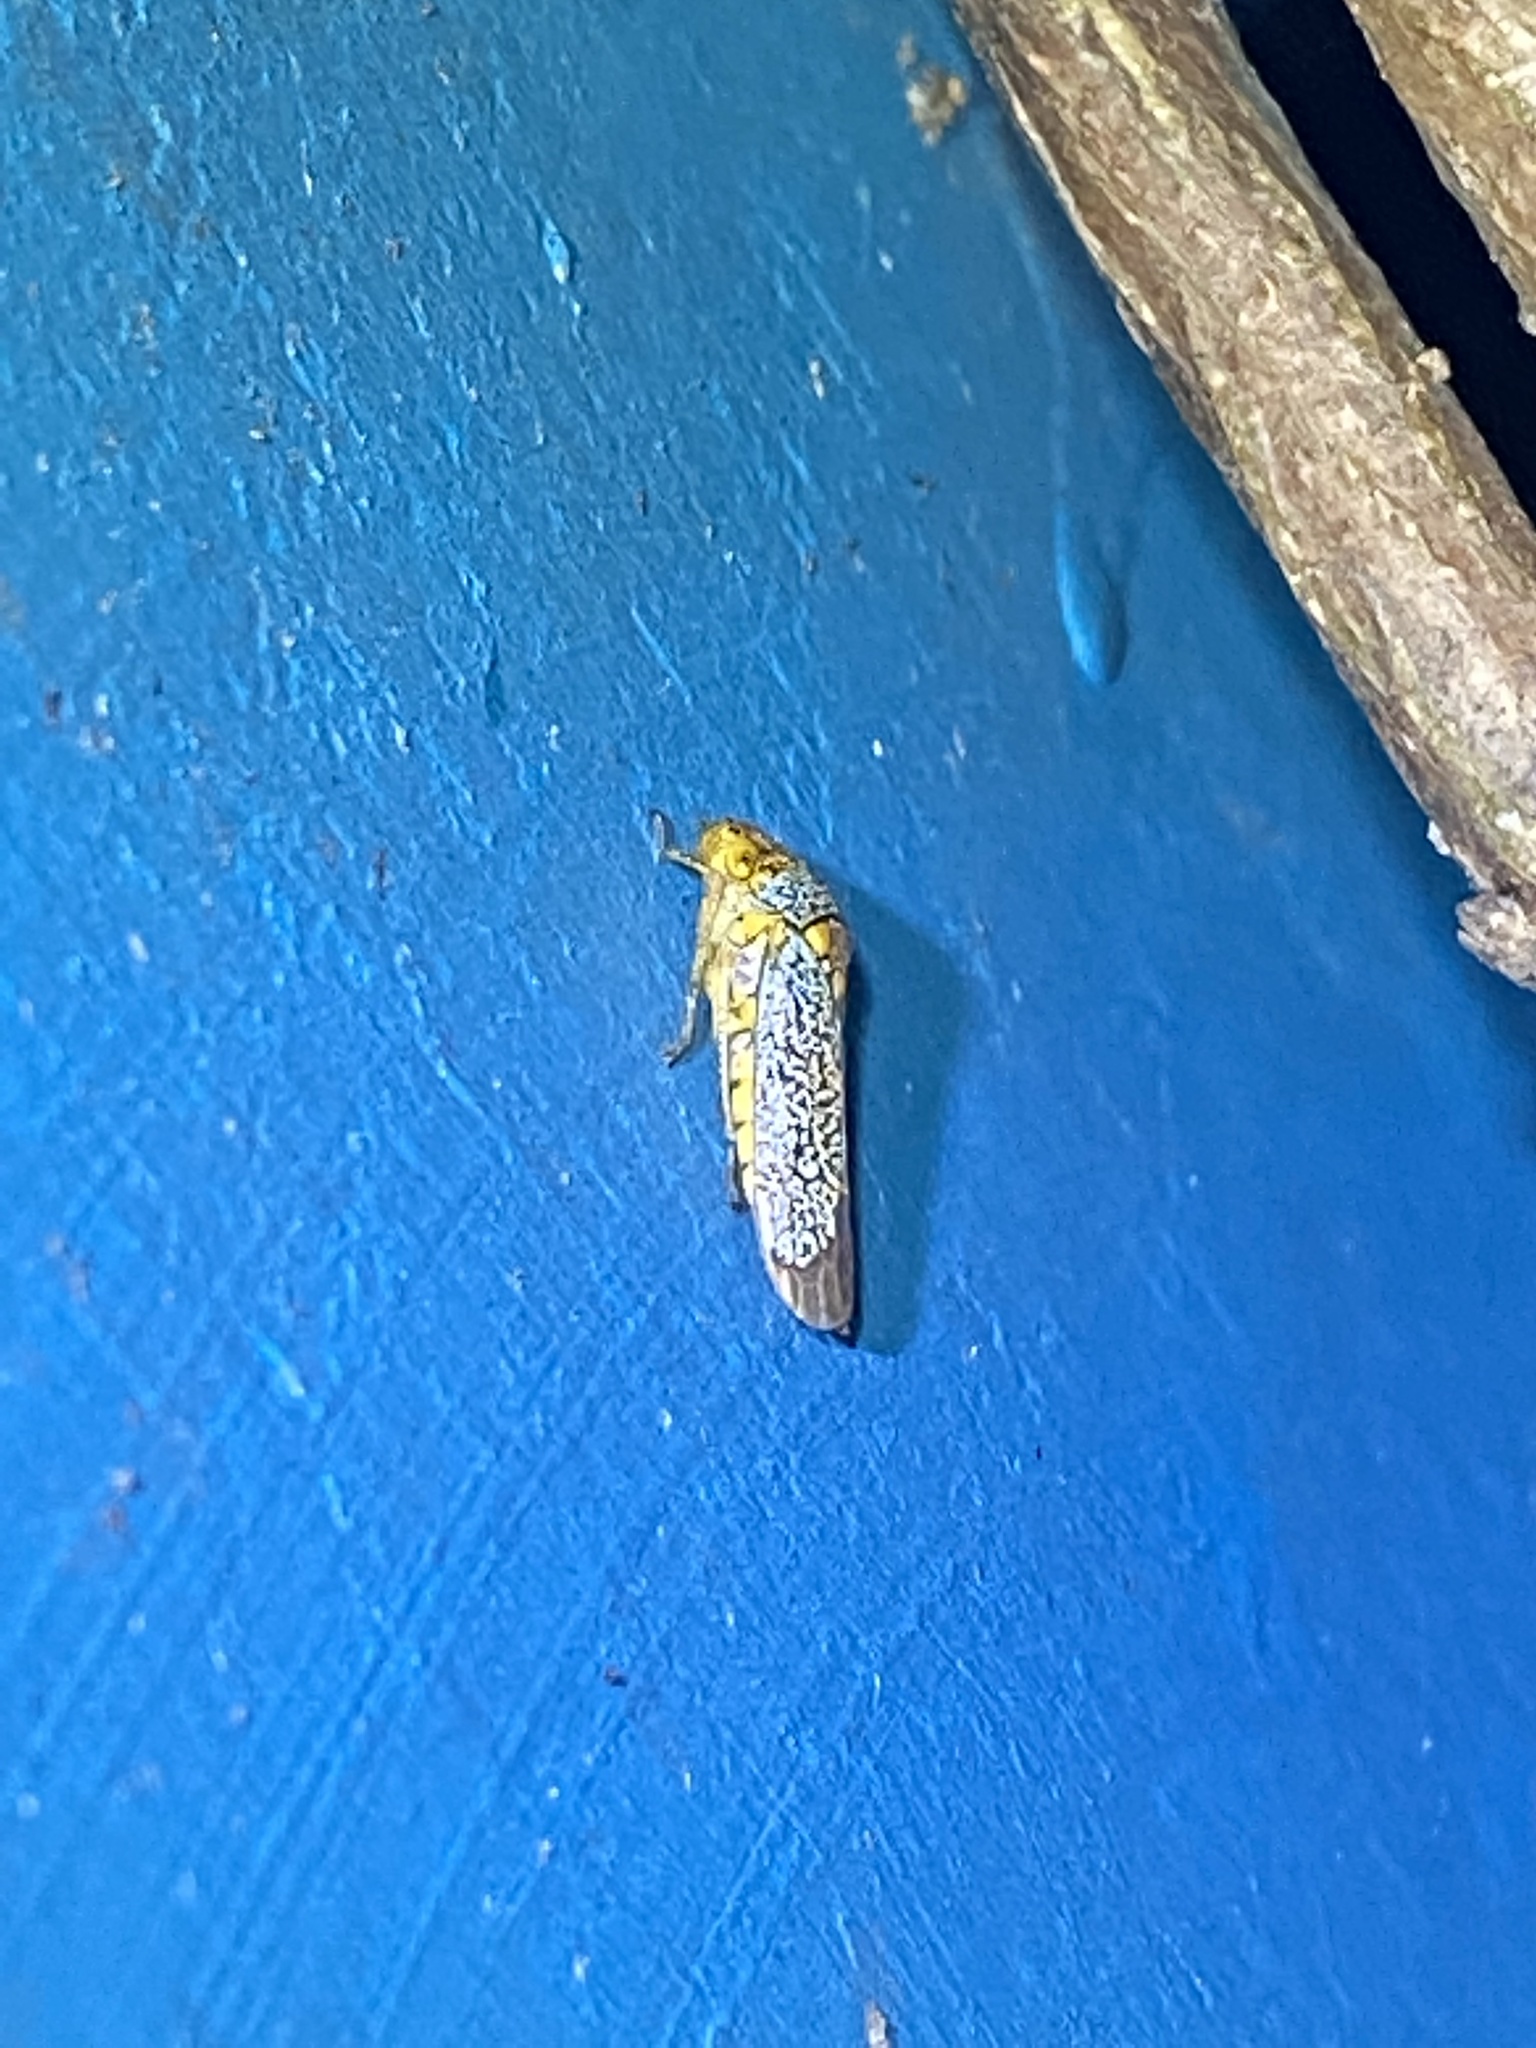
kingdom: Animalia
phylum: Arthropoda
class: Insecta
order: Hemiptera
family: Cicadellidae
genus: Oncometopia
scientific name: Oncometopia orbona
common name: Broad-headed sharpshooter
